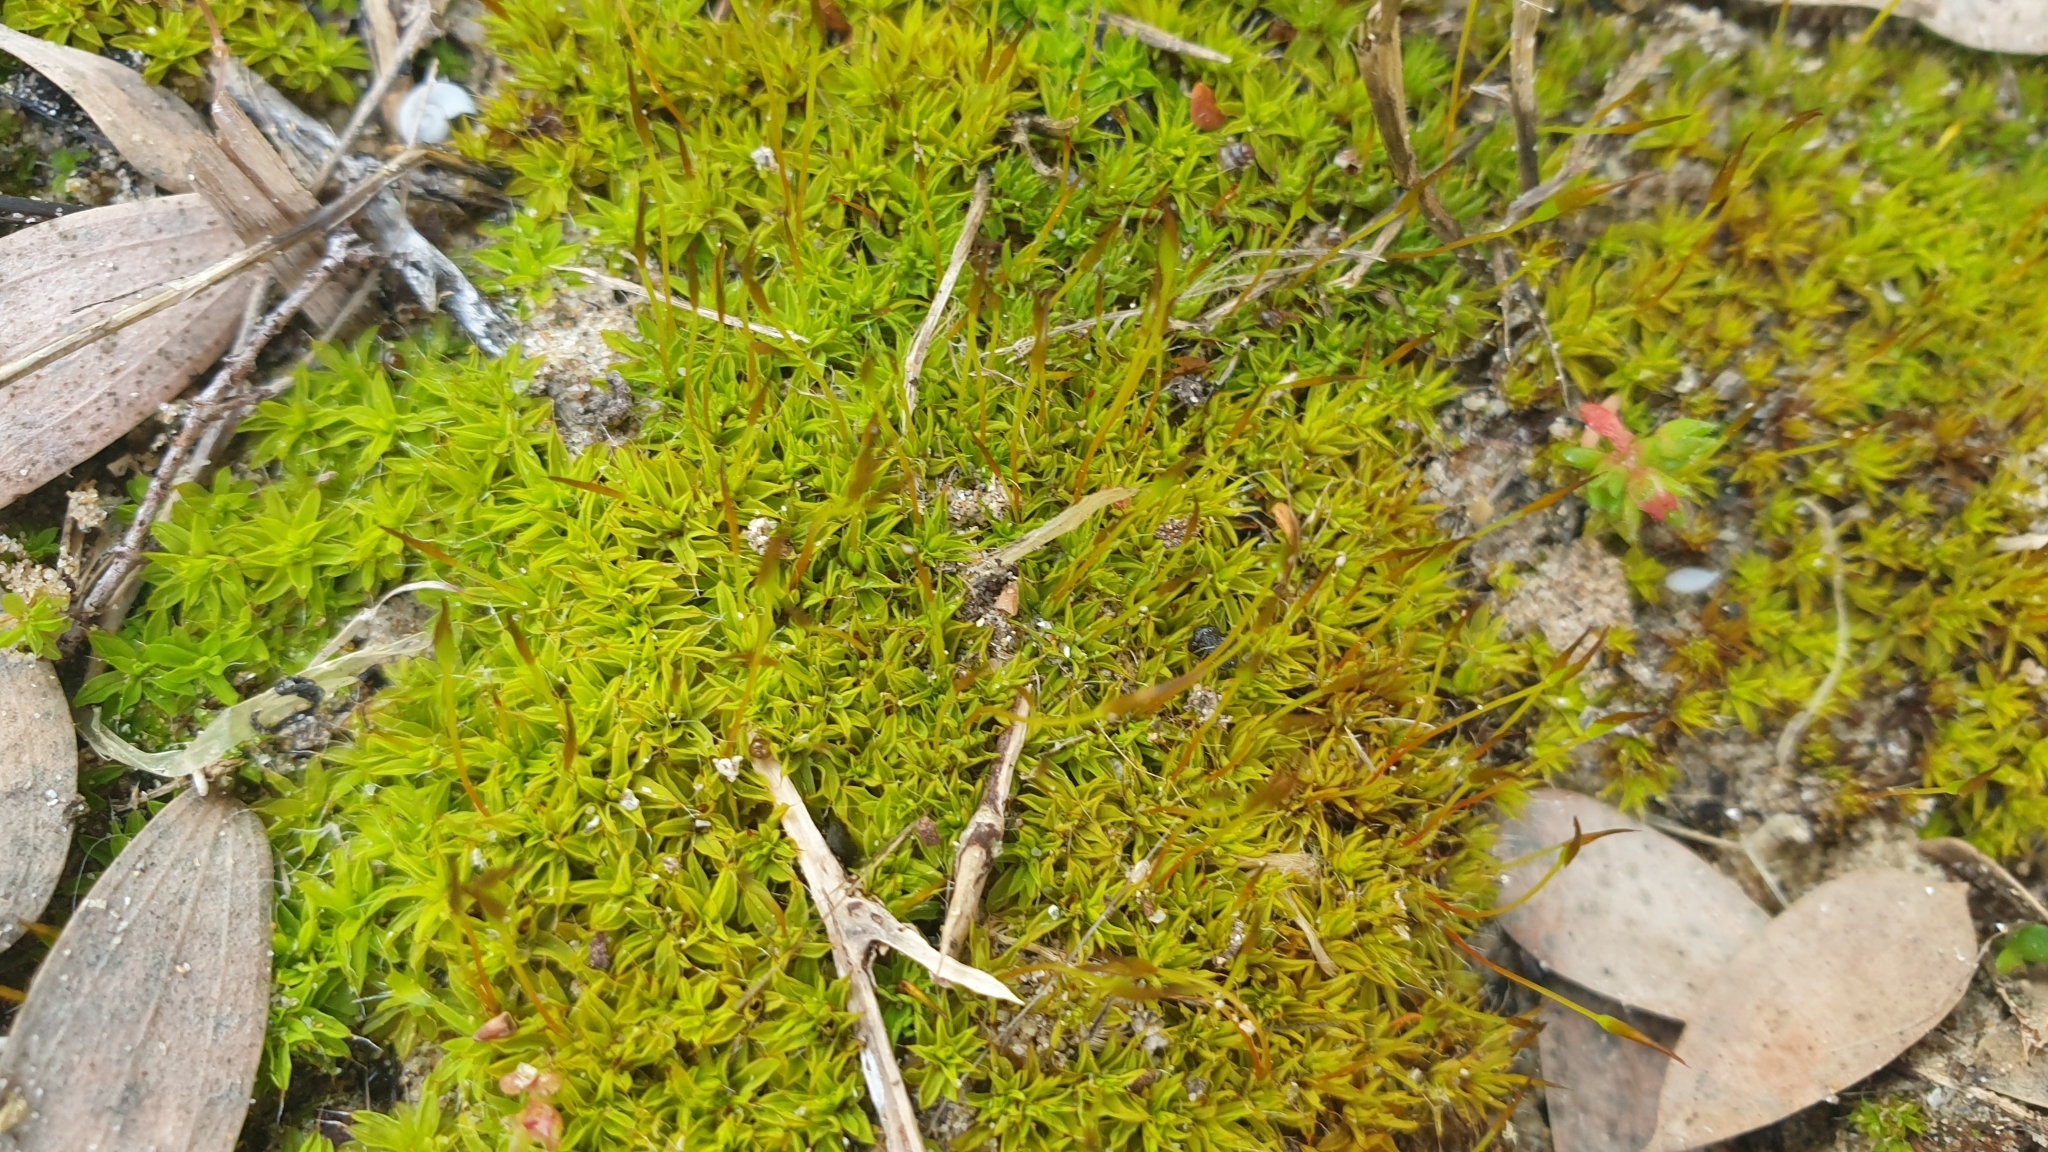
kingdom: Plantae
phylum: Bryophyta
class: Bryopsida
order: Pottiales
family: Pottiaceae
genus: Syntrichia
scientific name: Syntrichia antarctica
